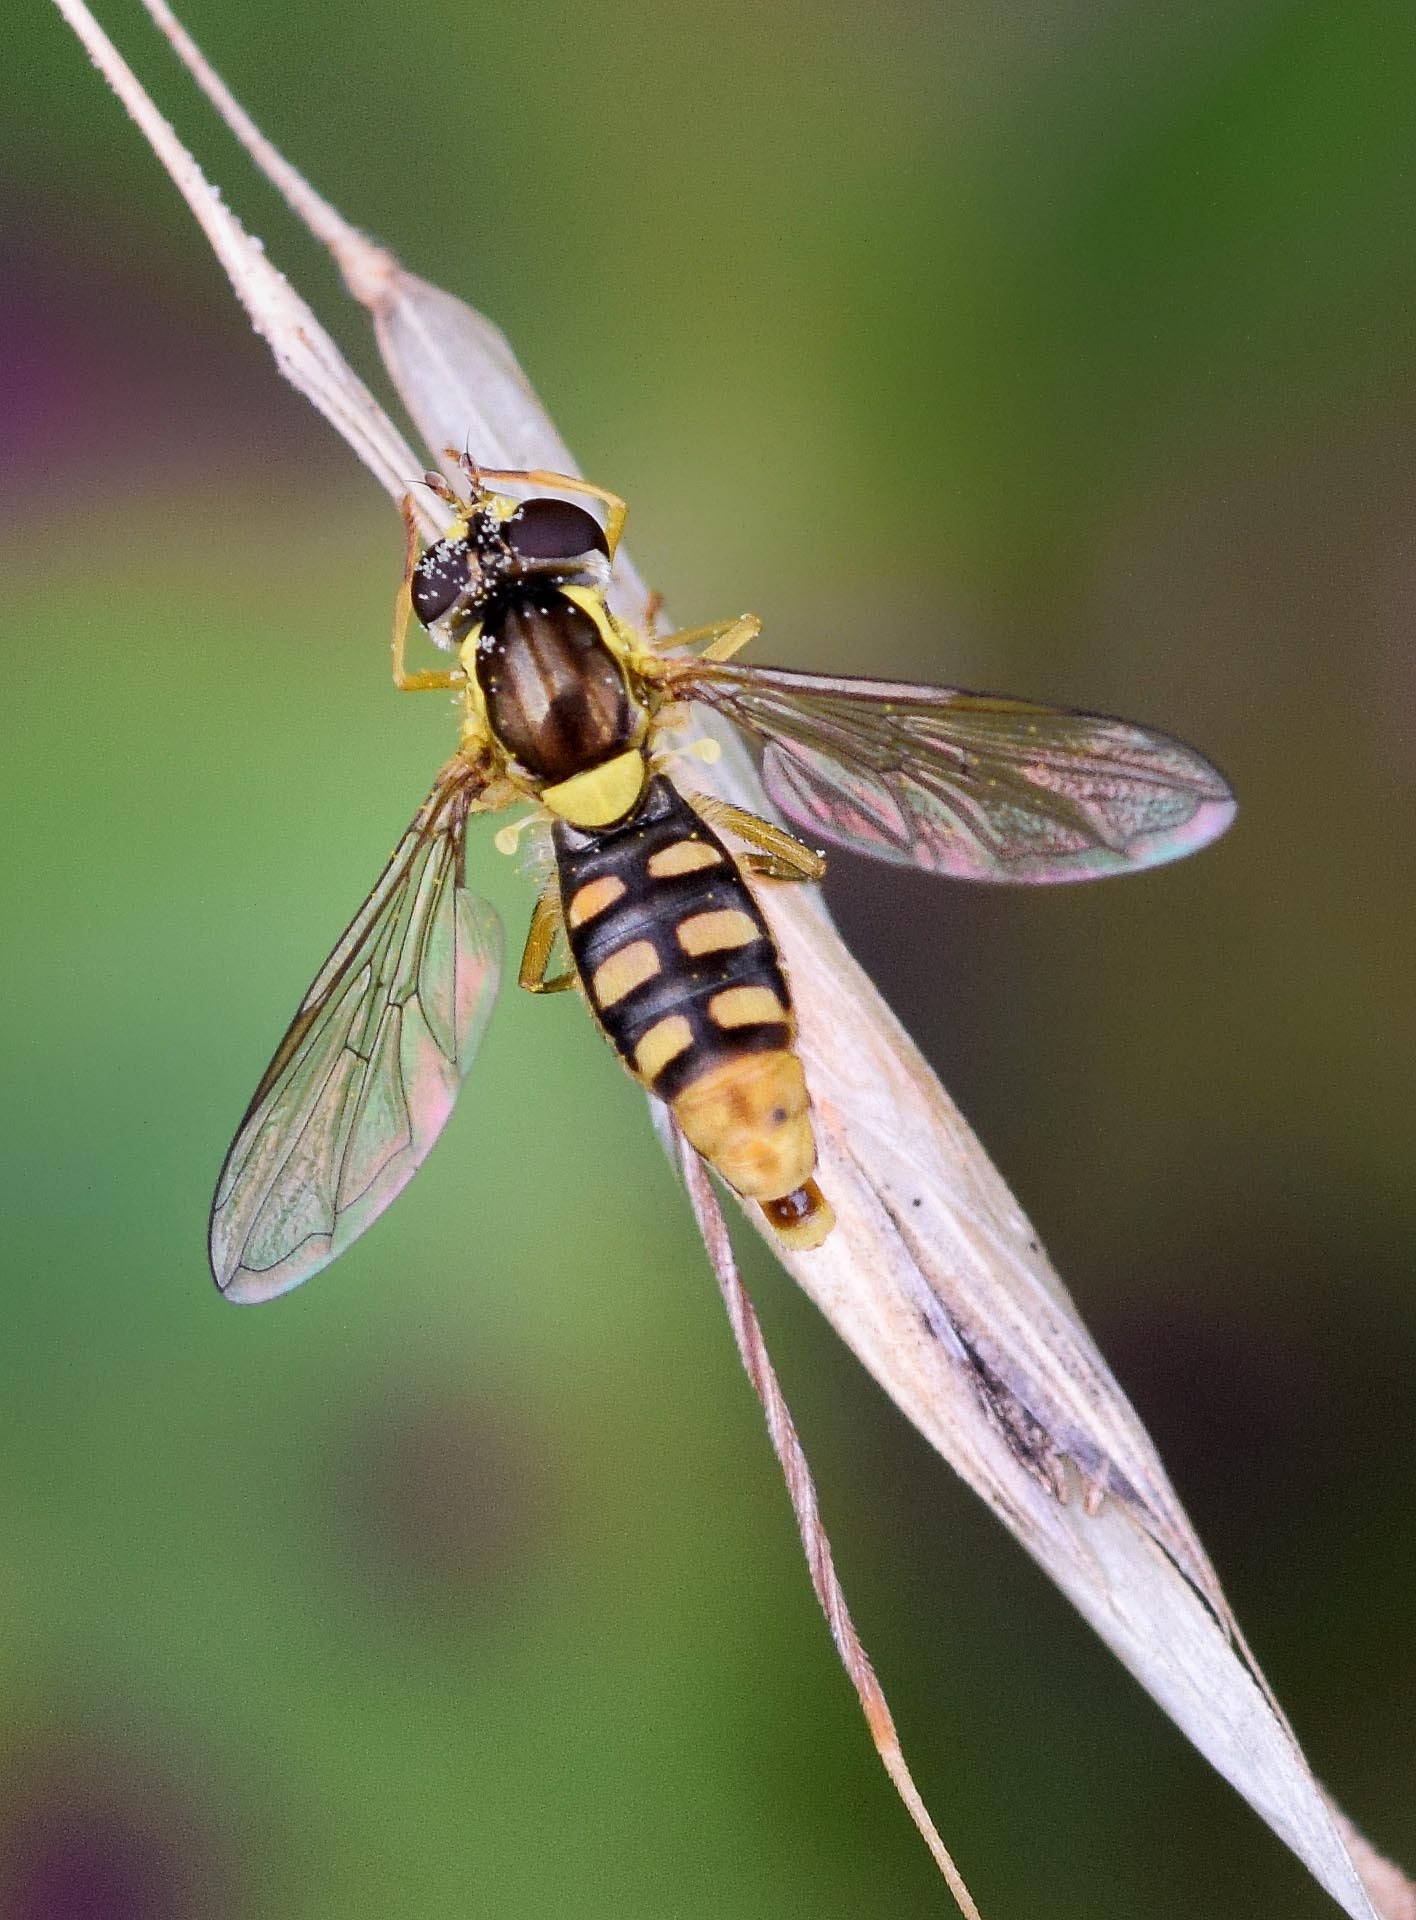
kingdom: Animalia
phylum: Arthropoda
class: Insecta
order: Diptera
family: Syrphidae
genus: Sphaerophoria
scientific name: Sphaerophoria
